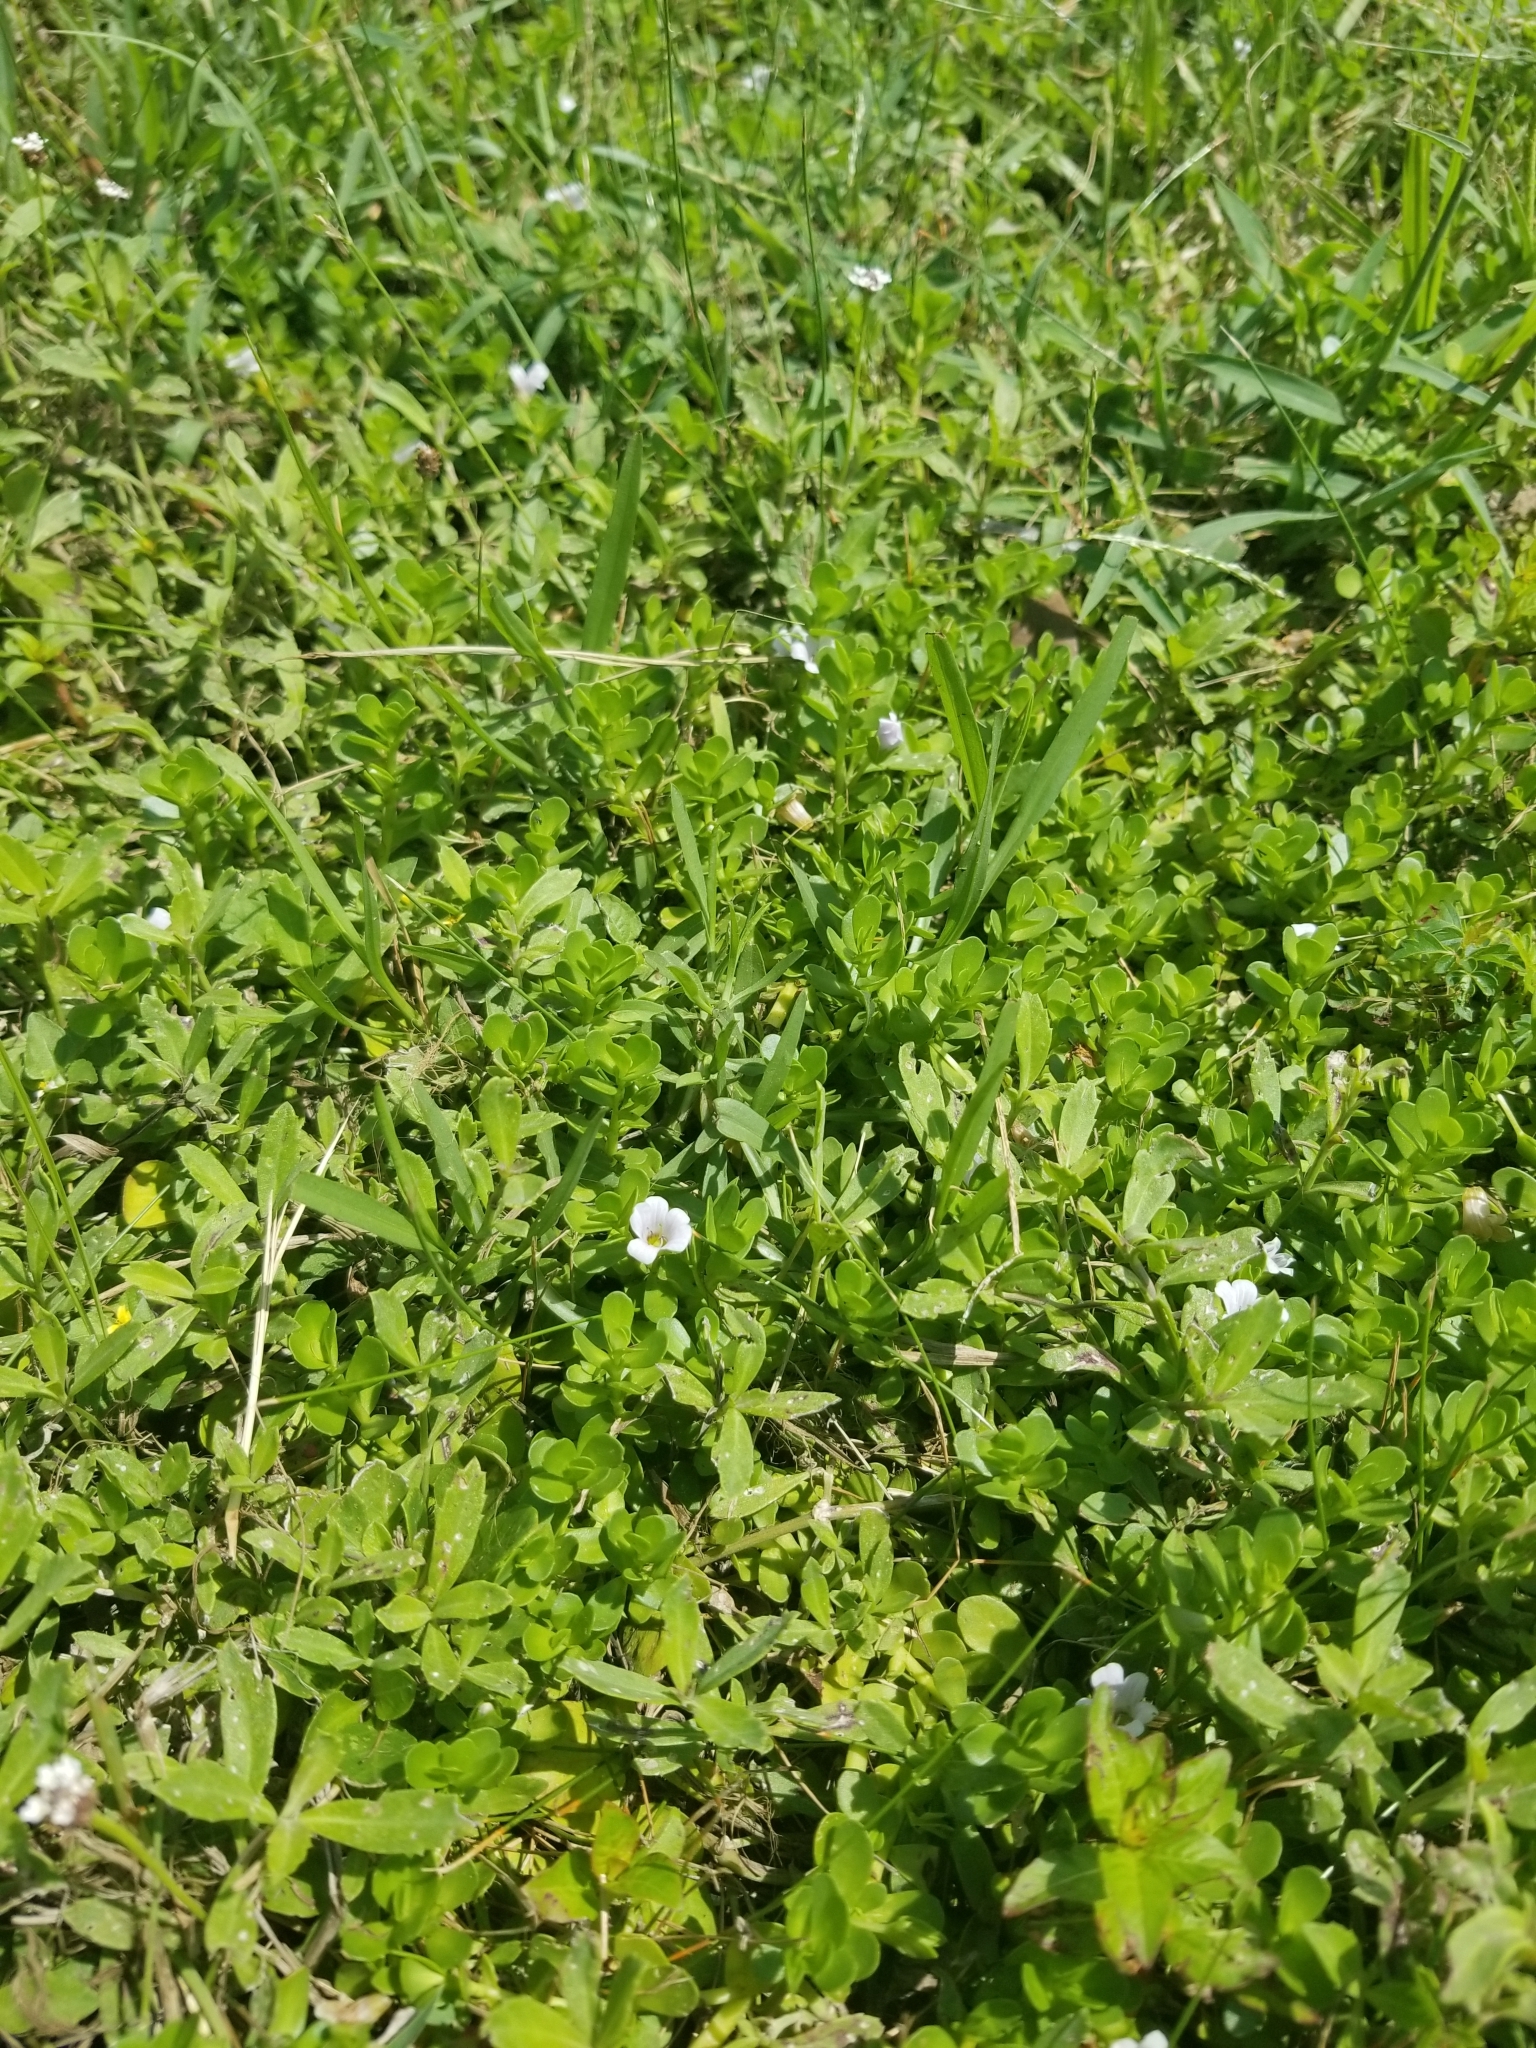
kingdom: Plantae
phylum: Tracheophyta
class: Magnoliopsida
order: Lamiales
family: Plantaginaceae
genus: Bacopa
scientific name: Bacopa monnieri
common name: Indian-pennywort
